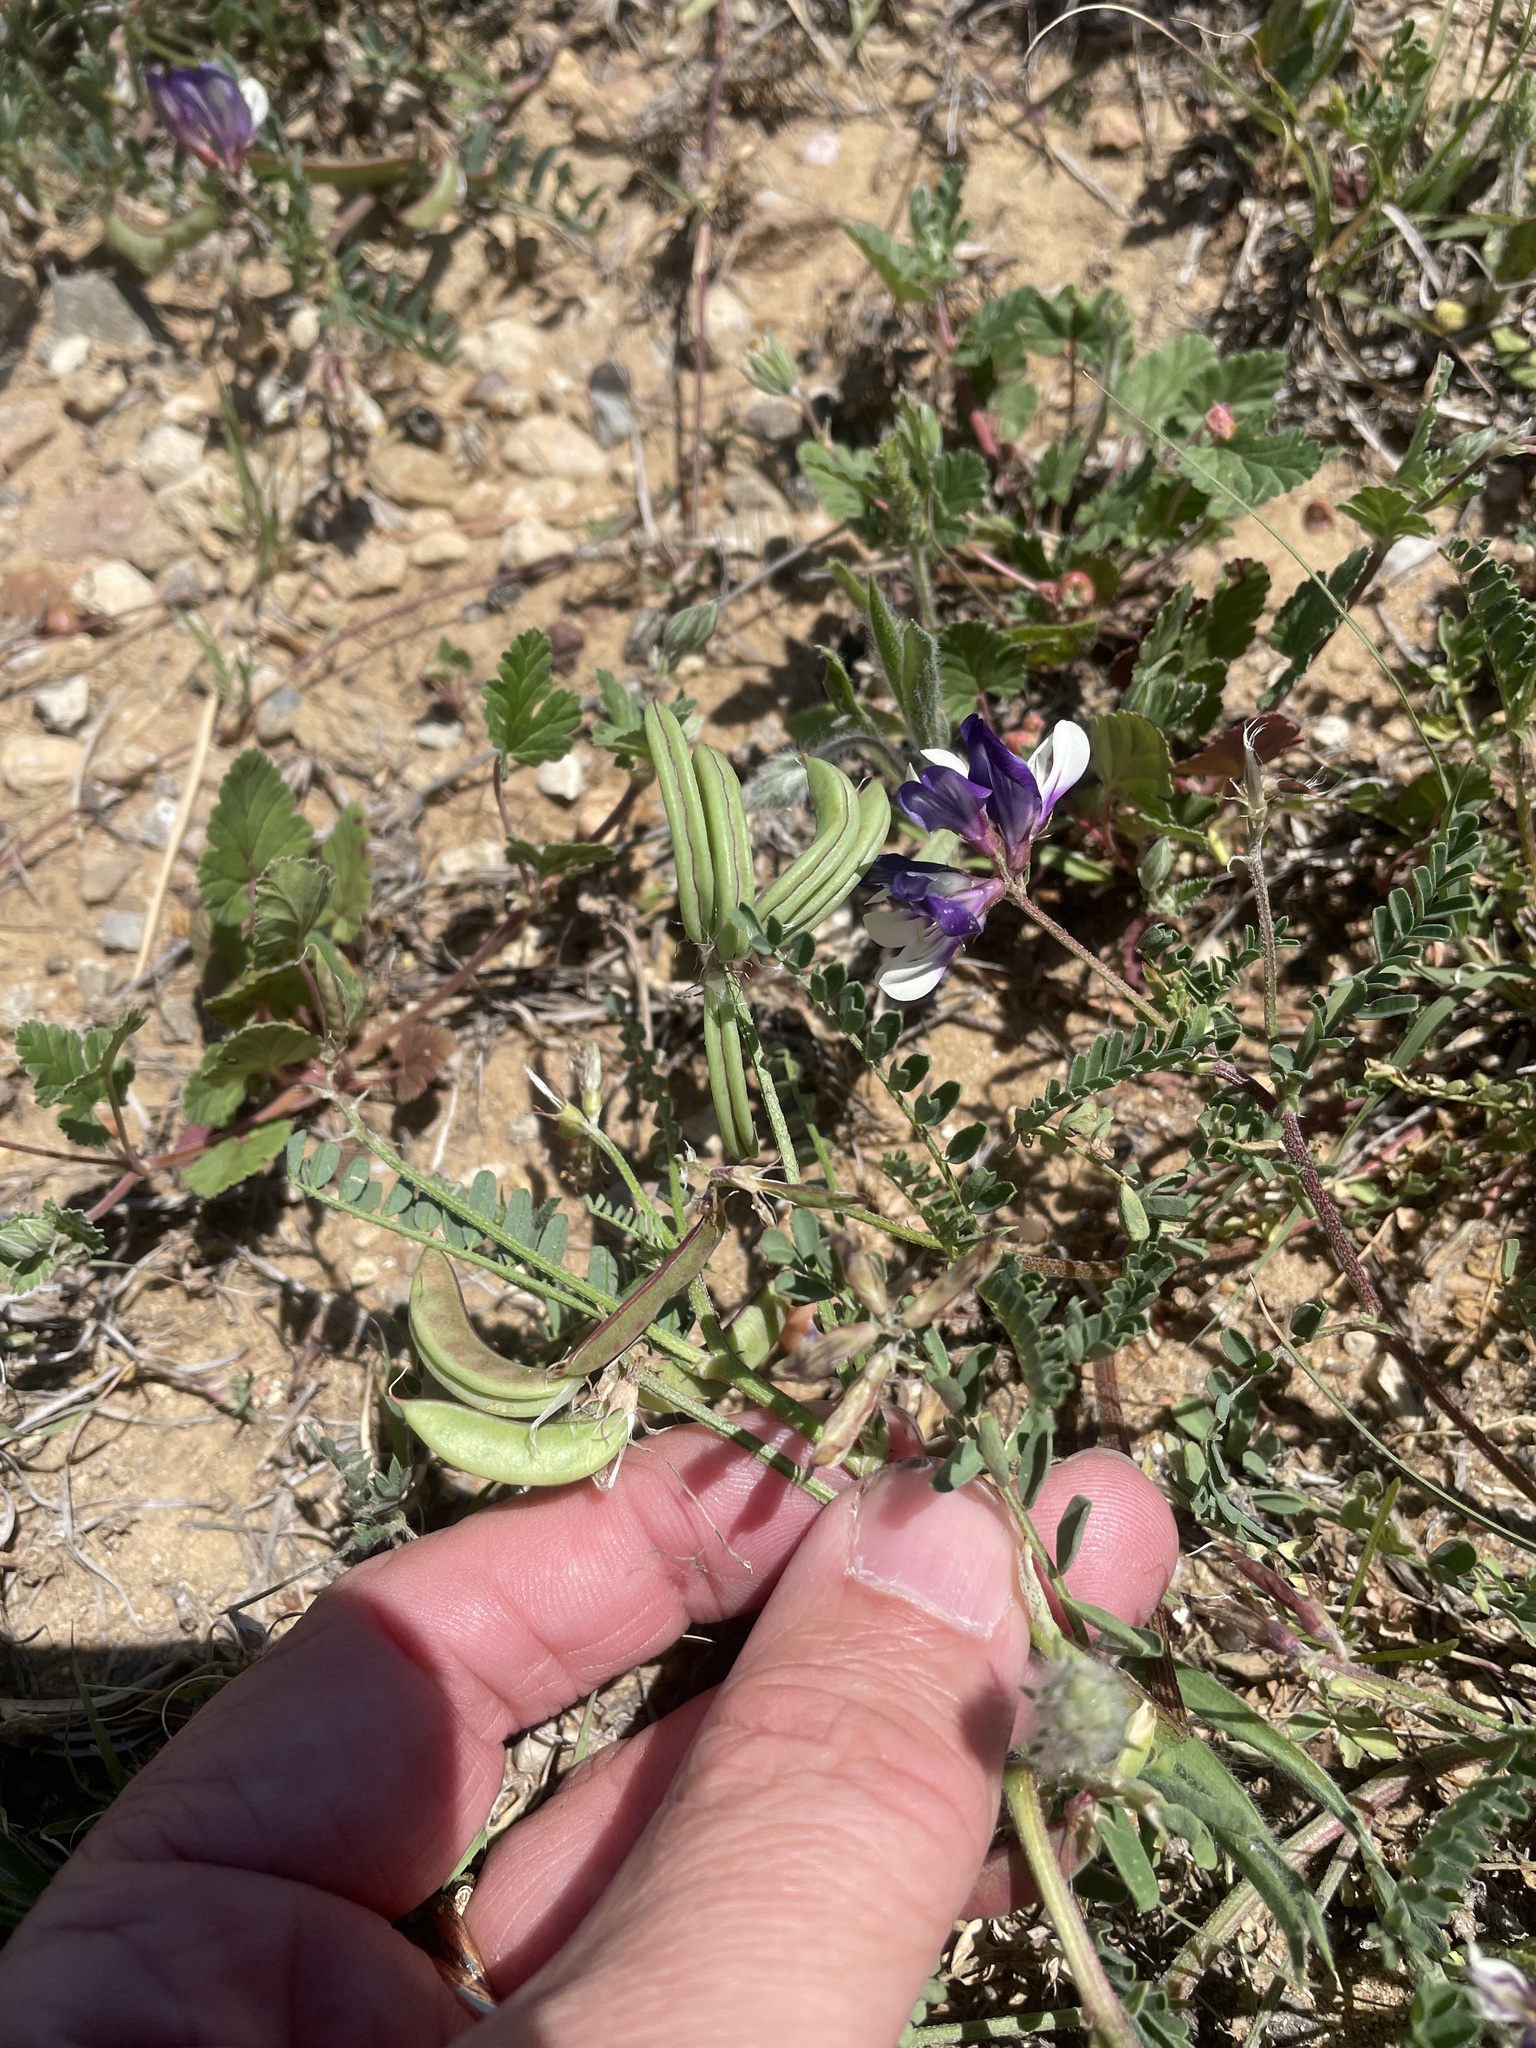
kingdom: Plantae
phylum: Tracheophyta
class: Magnoliopsida
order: Fabales
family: Fabaceae
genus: Astragalus
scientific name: Astragalus lindheimeri
